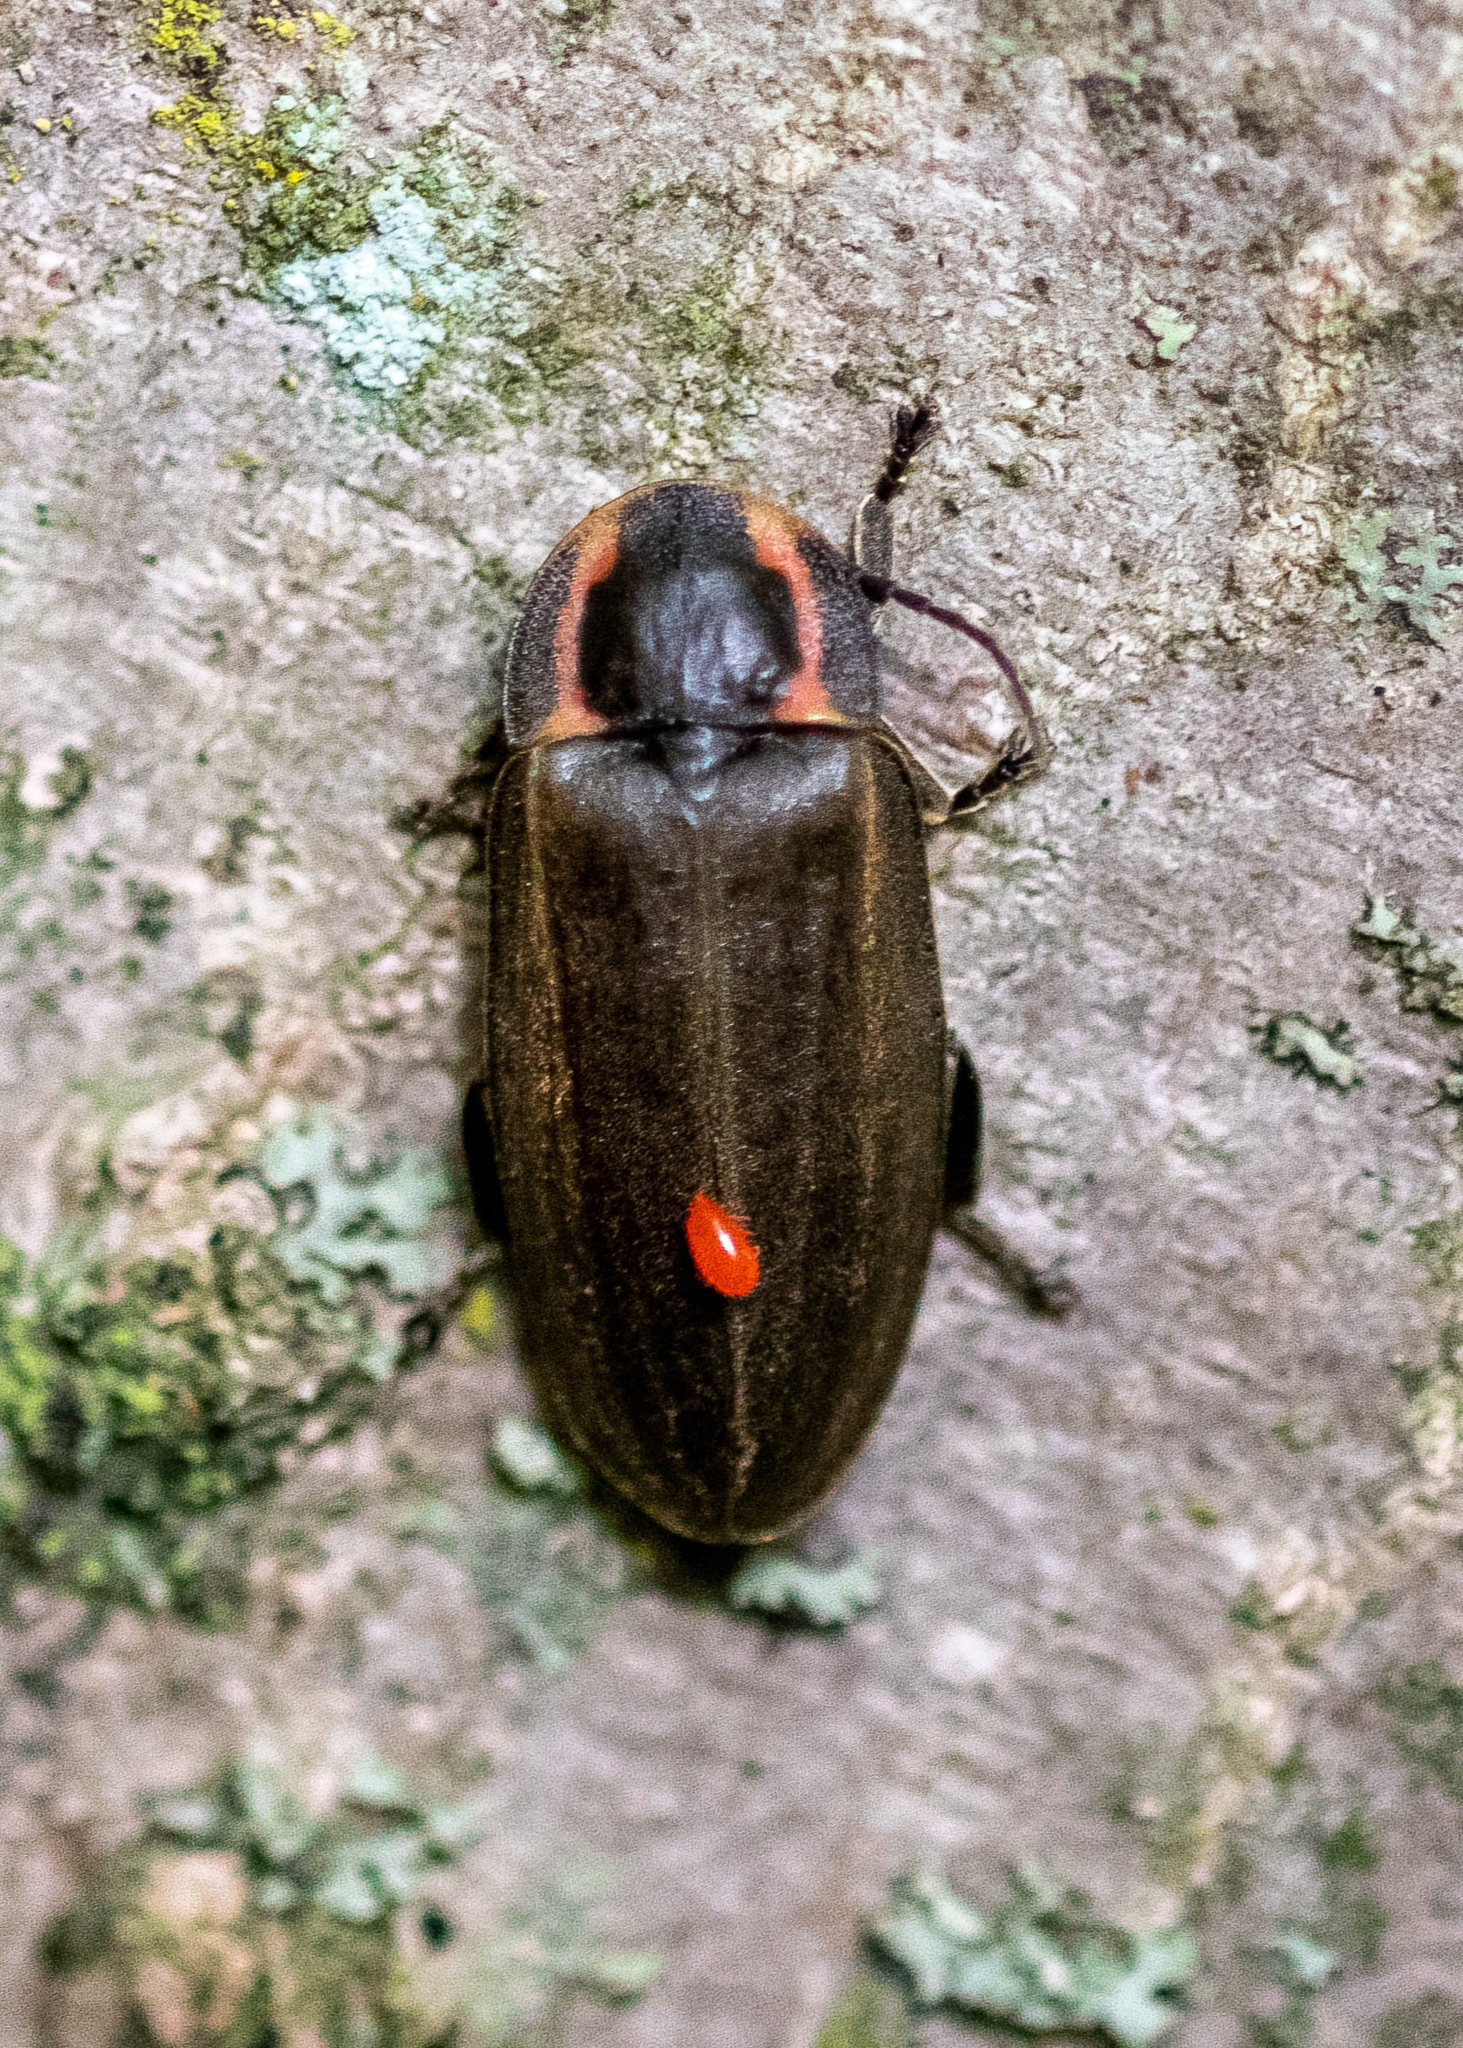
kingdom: Animalia
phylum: Arthropoda
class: Insecta
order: Coleoptera
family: Lampyridae
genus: Photinus
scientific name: Photinus corrusca
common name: Winter firefly
